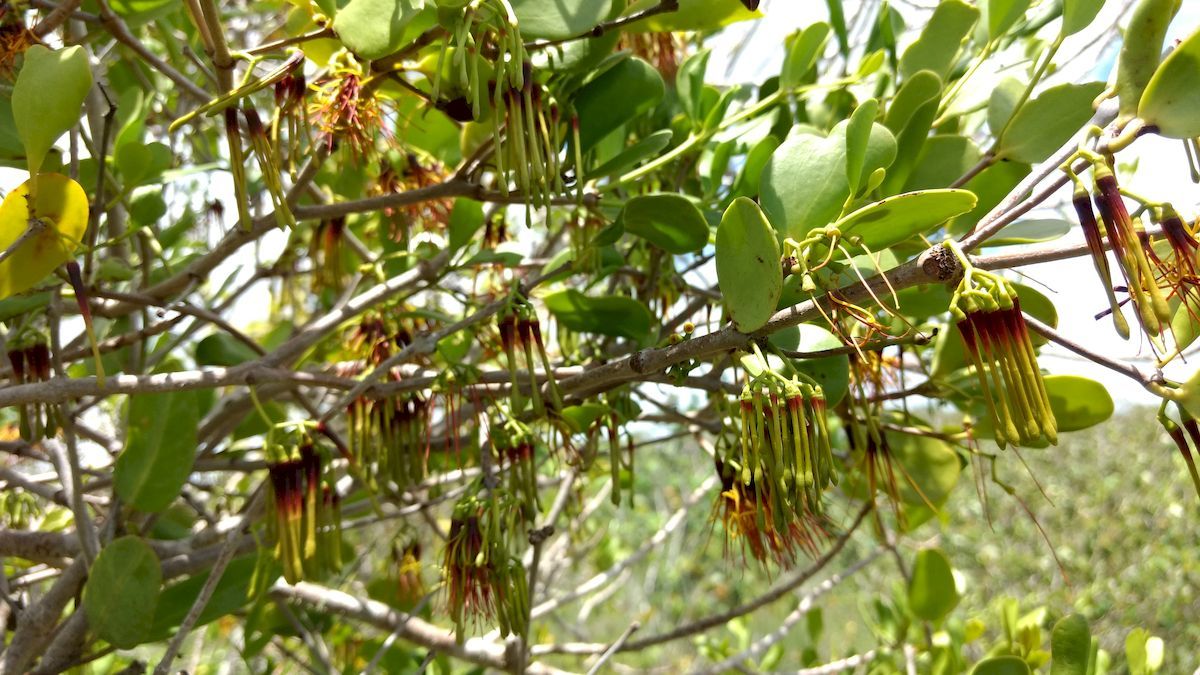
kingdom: Plantae
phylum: Tracheophyta
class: Magnoliopsida
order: Santalales
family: Loranthaceae
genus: Amyema
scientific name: Amyema mackayensis
